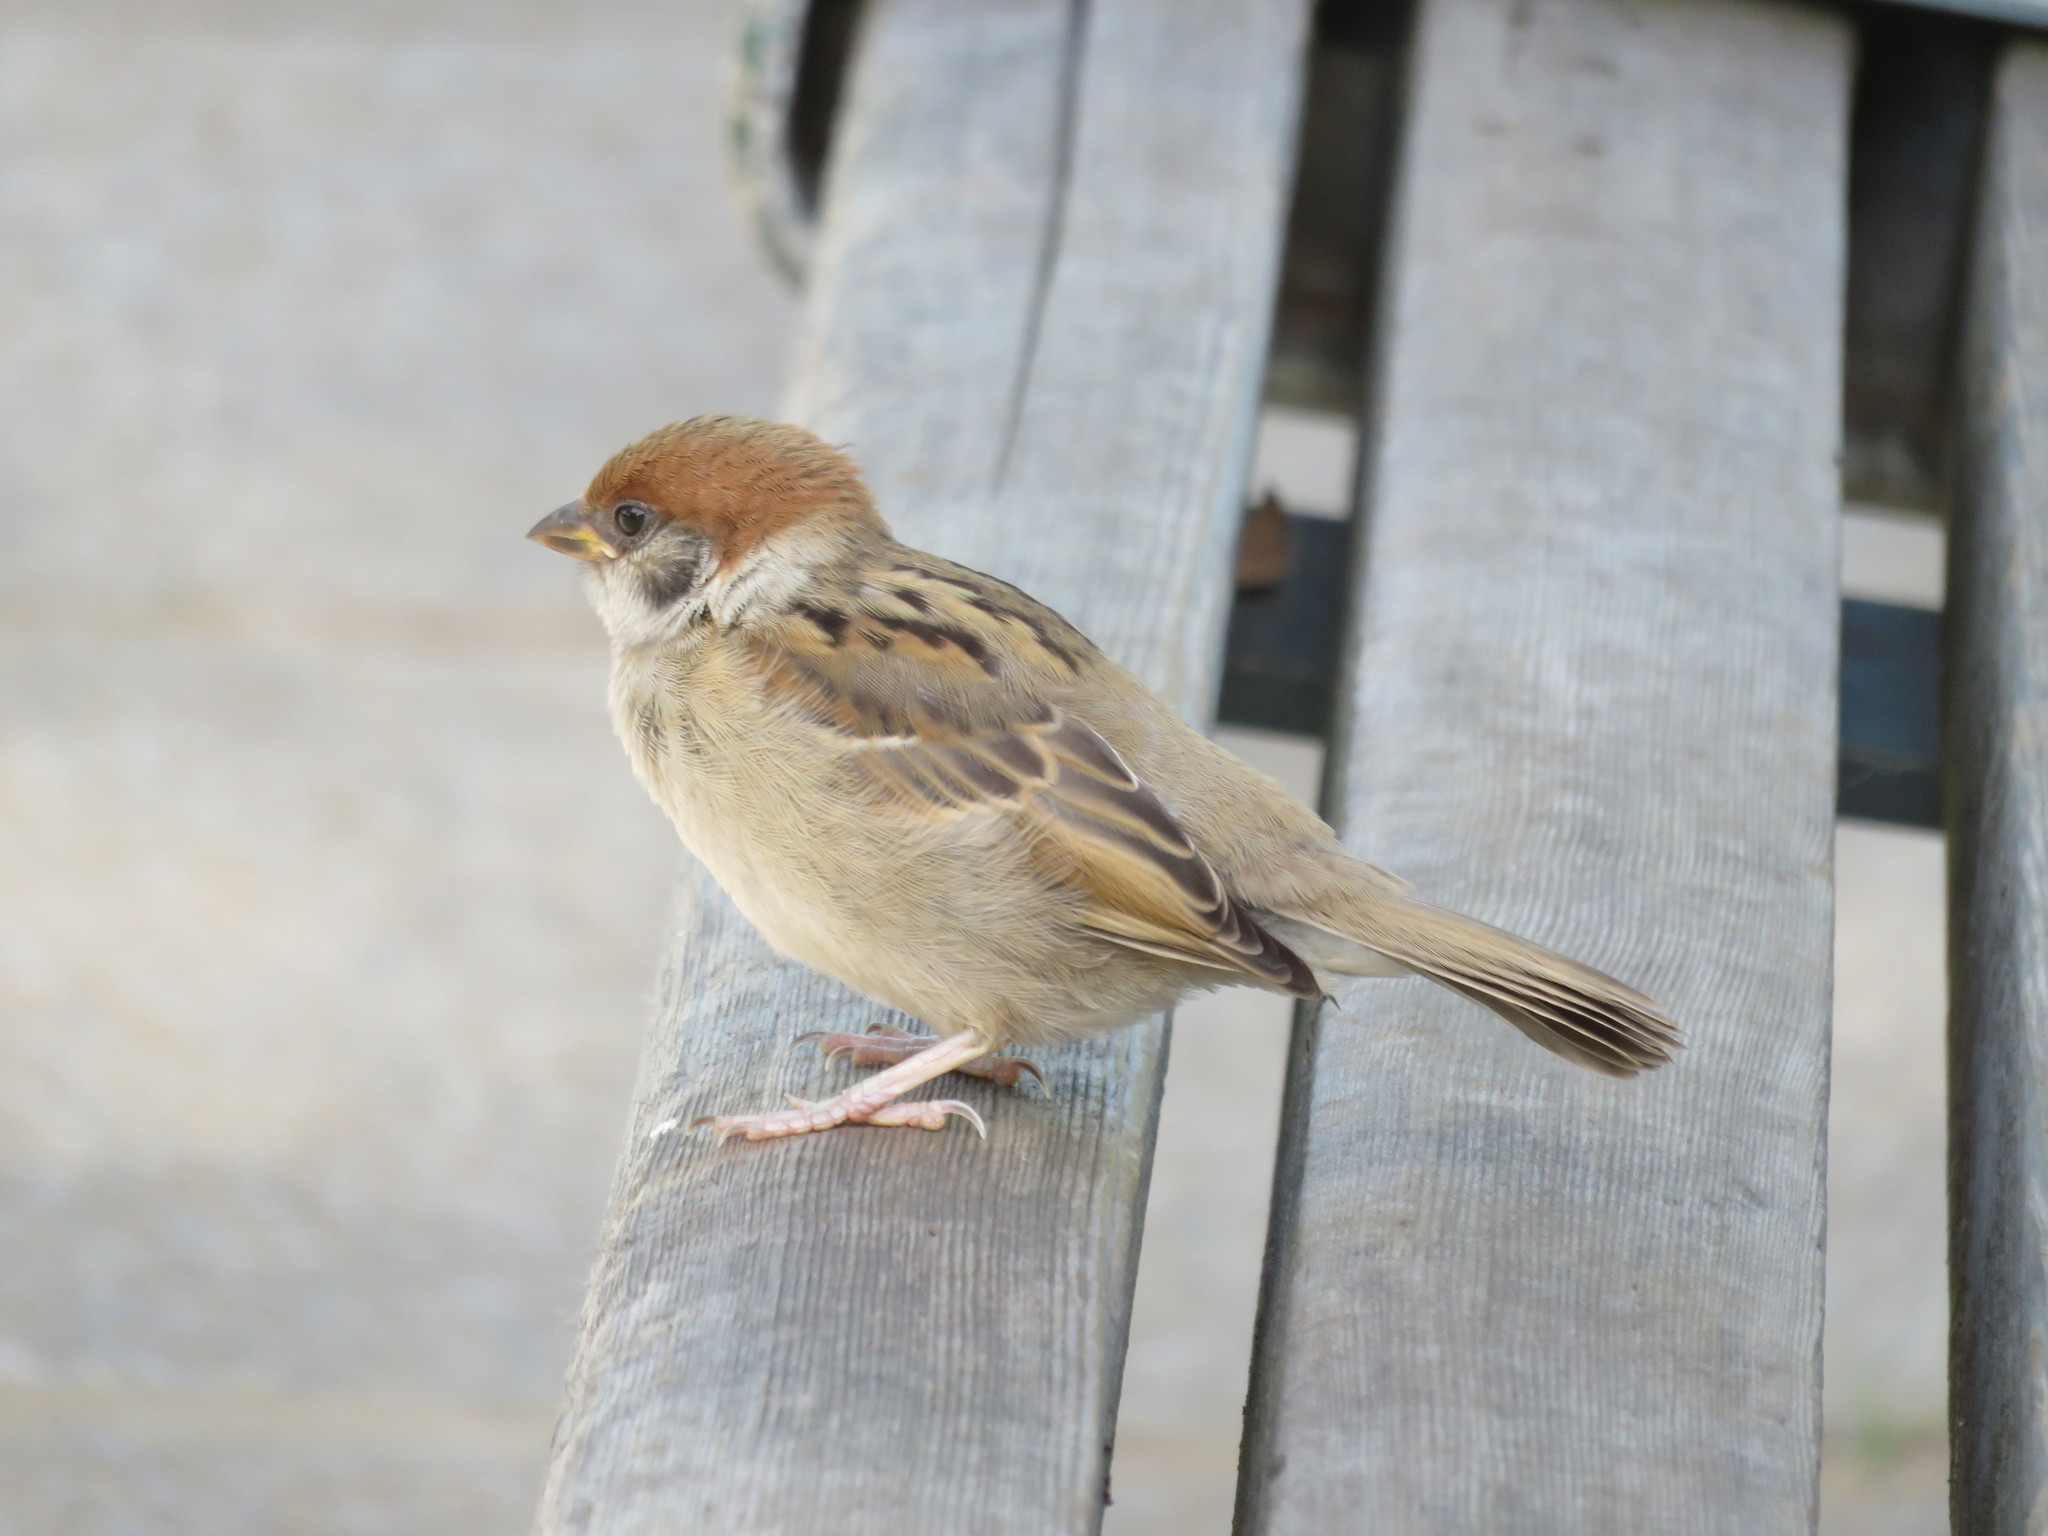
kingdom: Animalia
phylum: Chordata
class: Aves
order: Passeriformes
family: Passeridae
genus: Passer
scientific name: Passer montanus
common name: Eurasian tree sparrow
